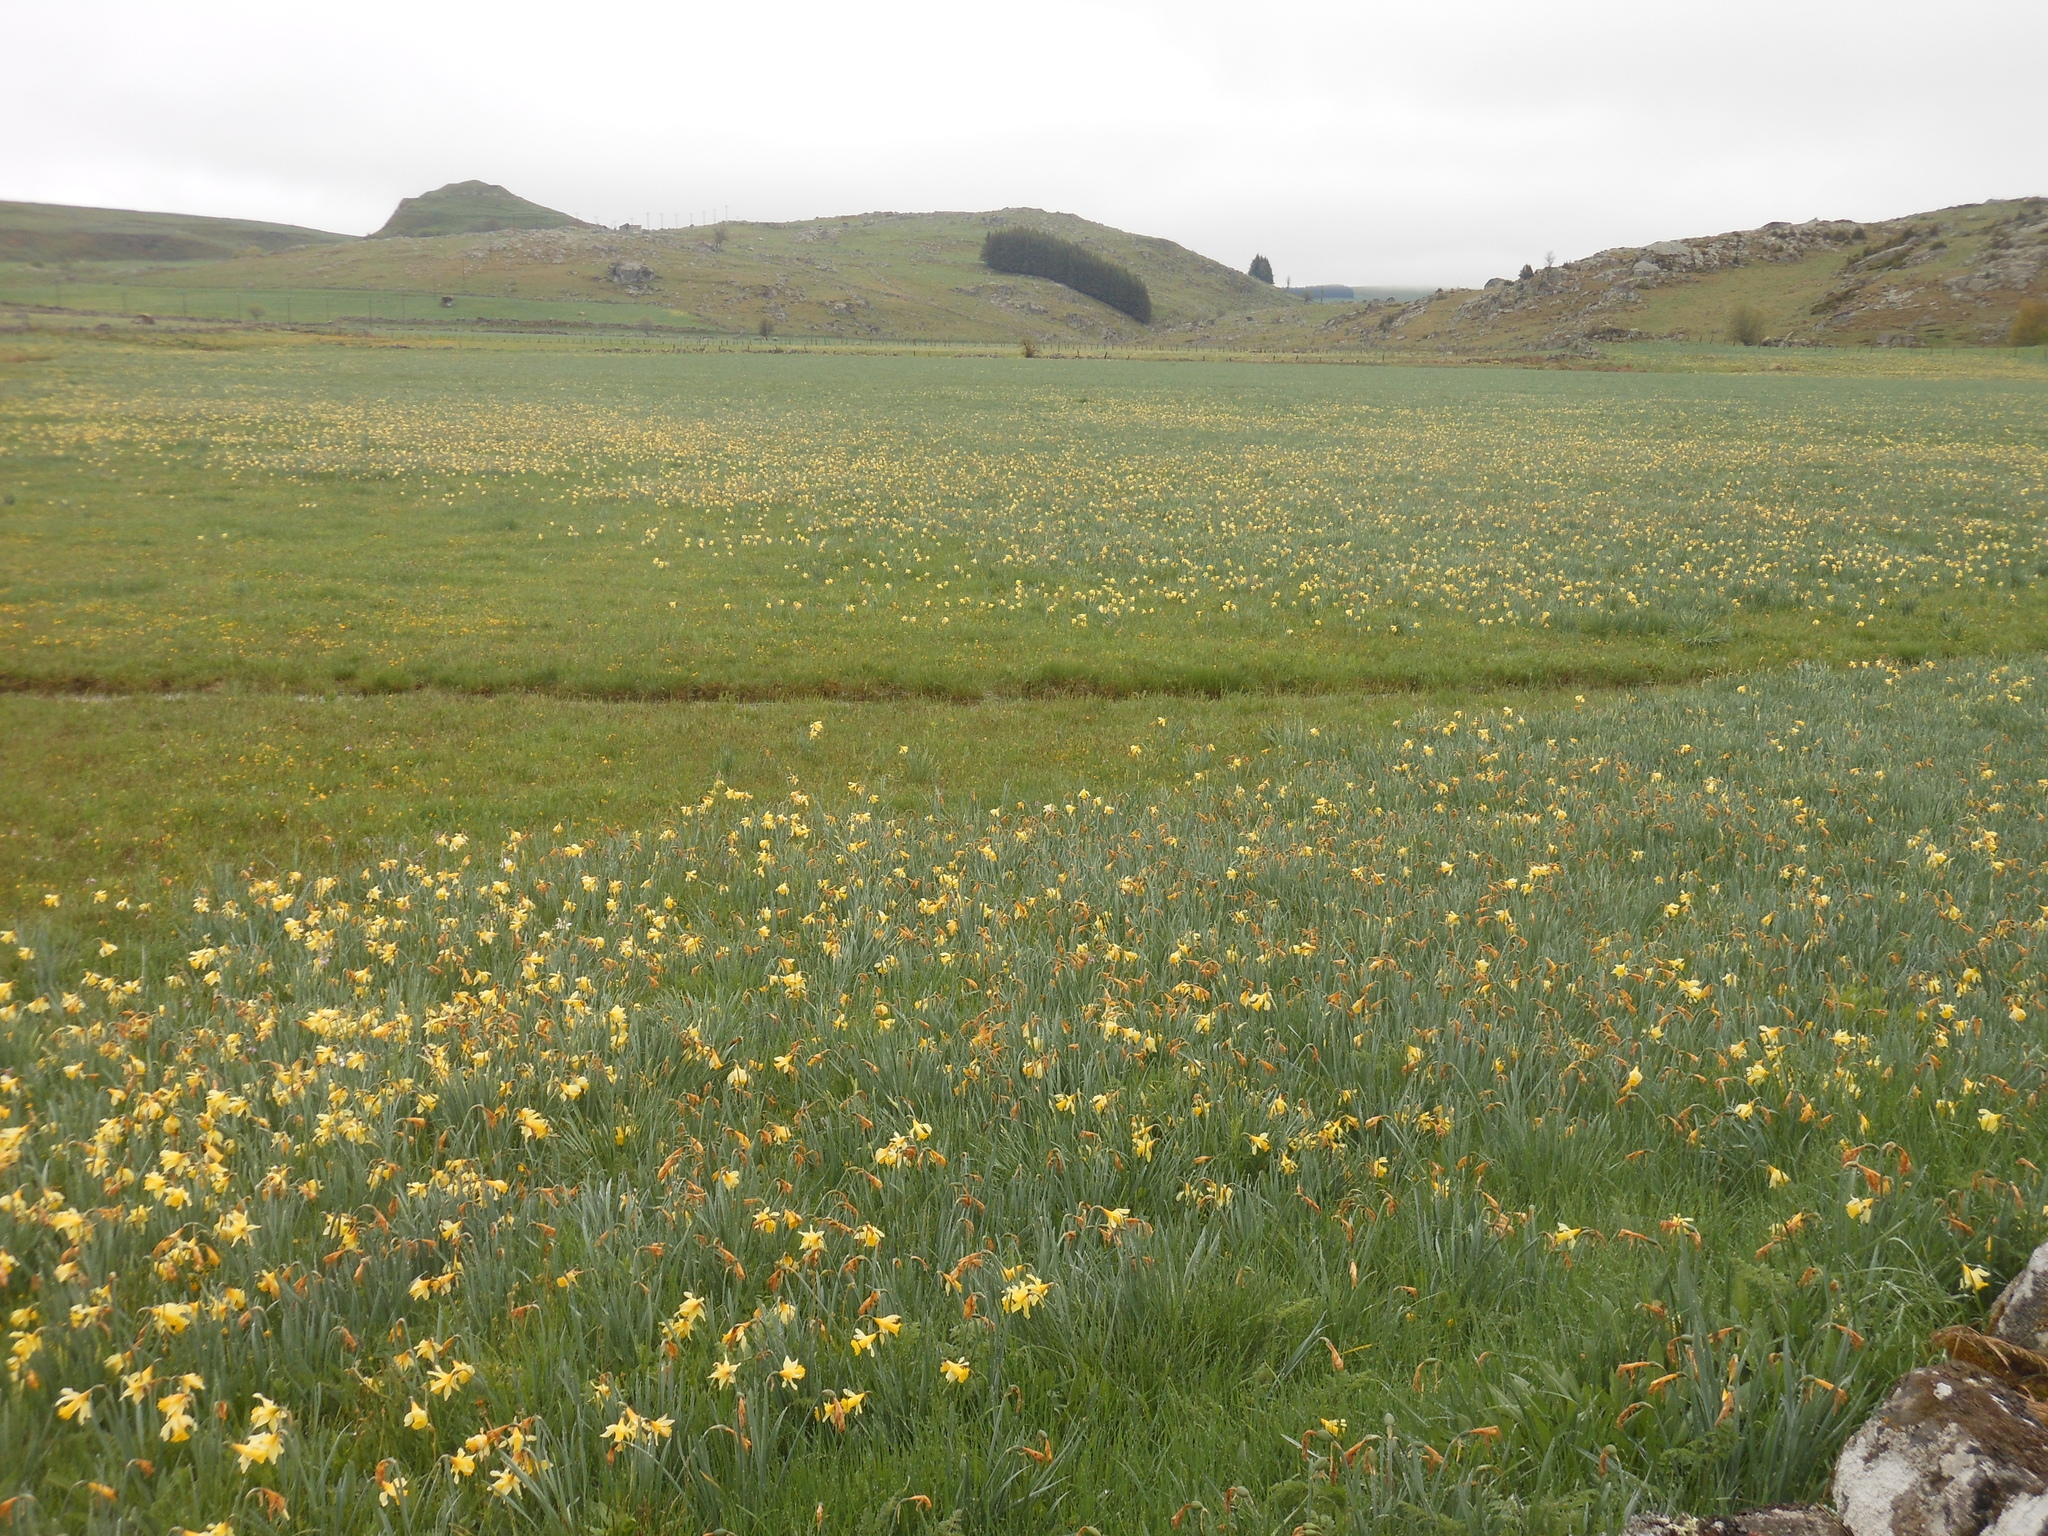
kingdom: Plantae
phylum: Tracheophyta
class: Liliopsida
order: Asparagales
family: Amaryllidaceae
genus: Narcissus
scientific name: Narcissus pseudonarcissus
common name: Daffodil
